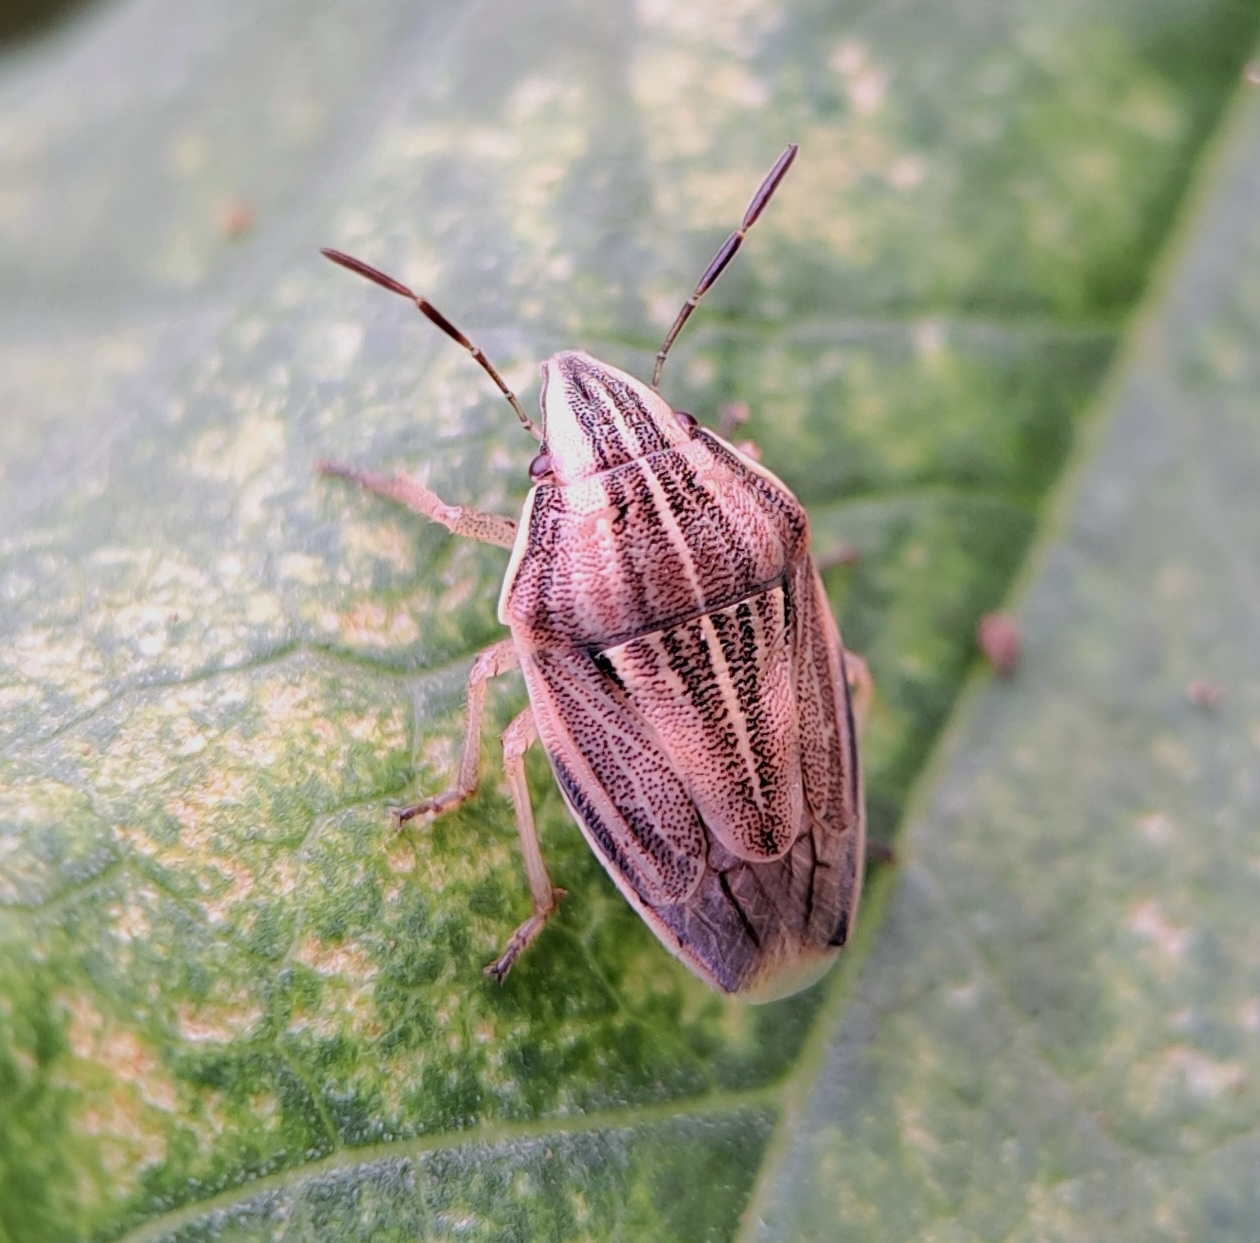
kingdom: Animalia
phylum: Arthropoda
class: Insecta
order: Hemiptera
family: Pentatomidae
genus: Aelia
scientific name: Aelia acuminata
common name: Bishop's mitre
